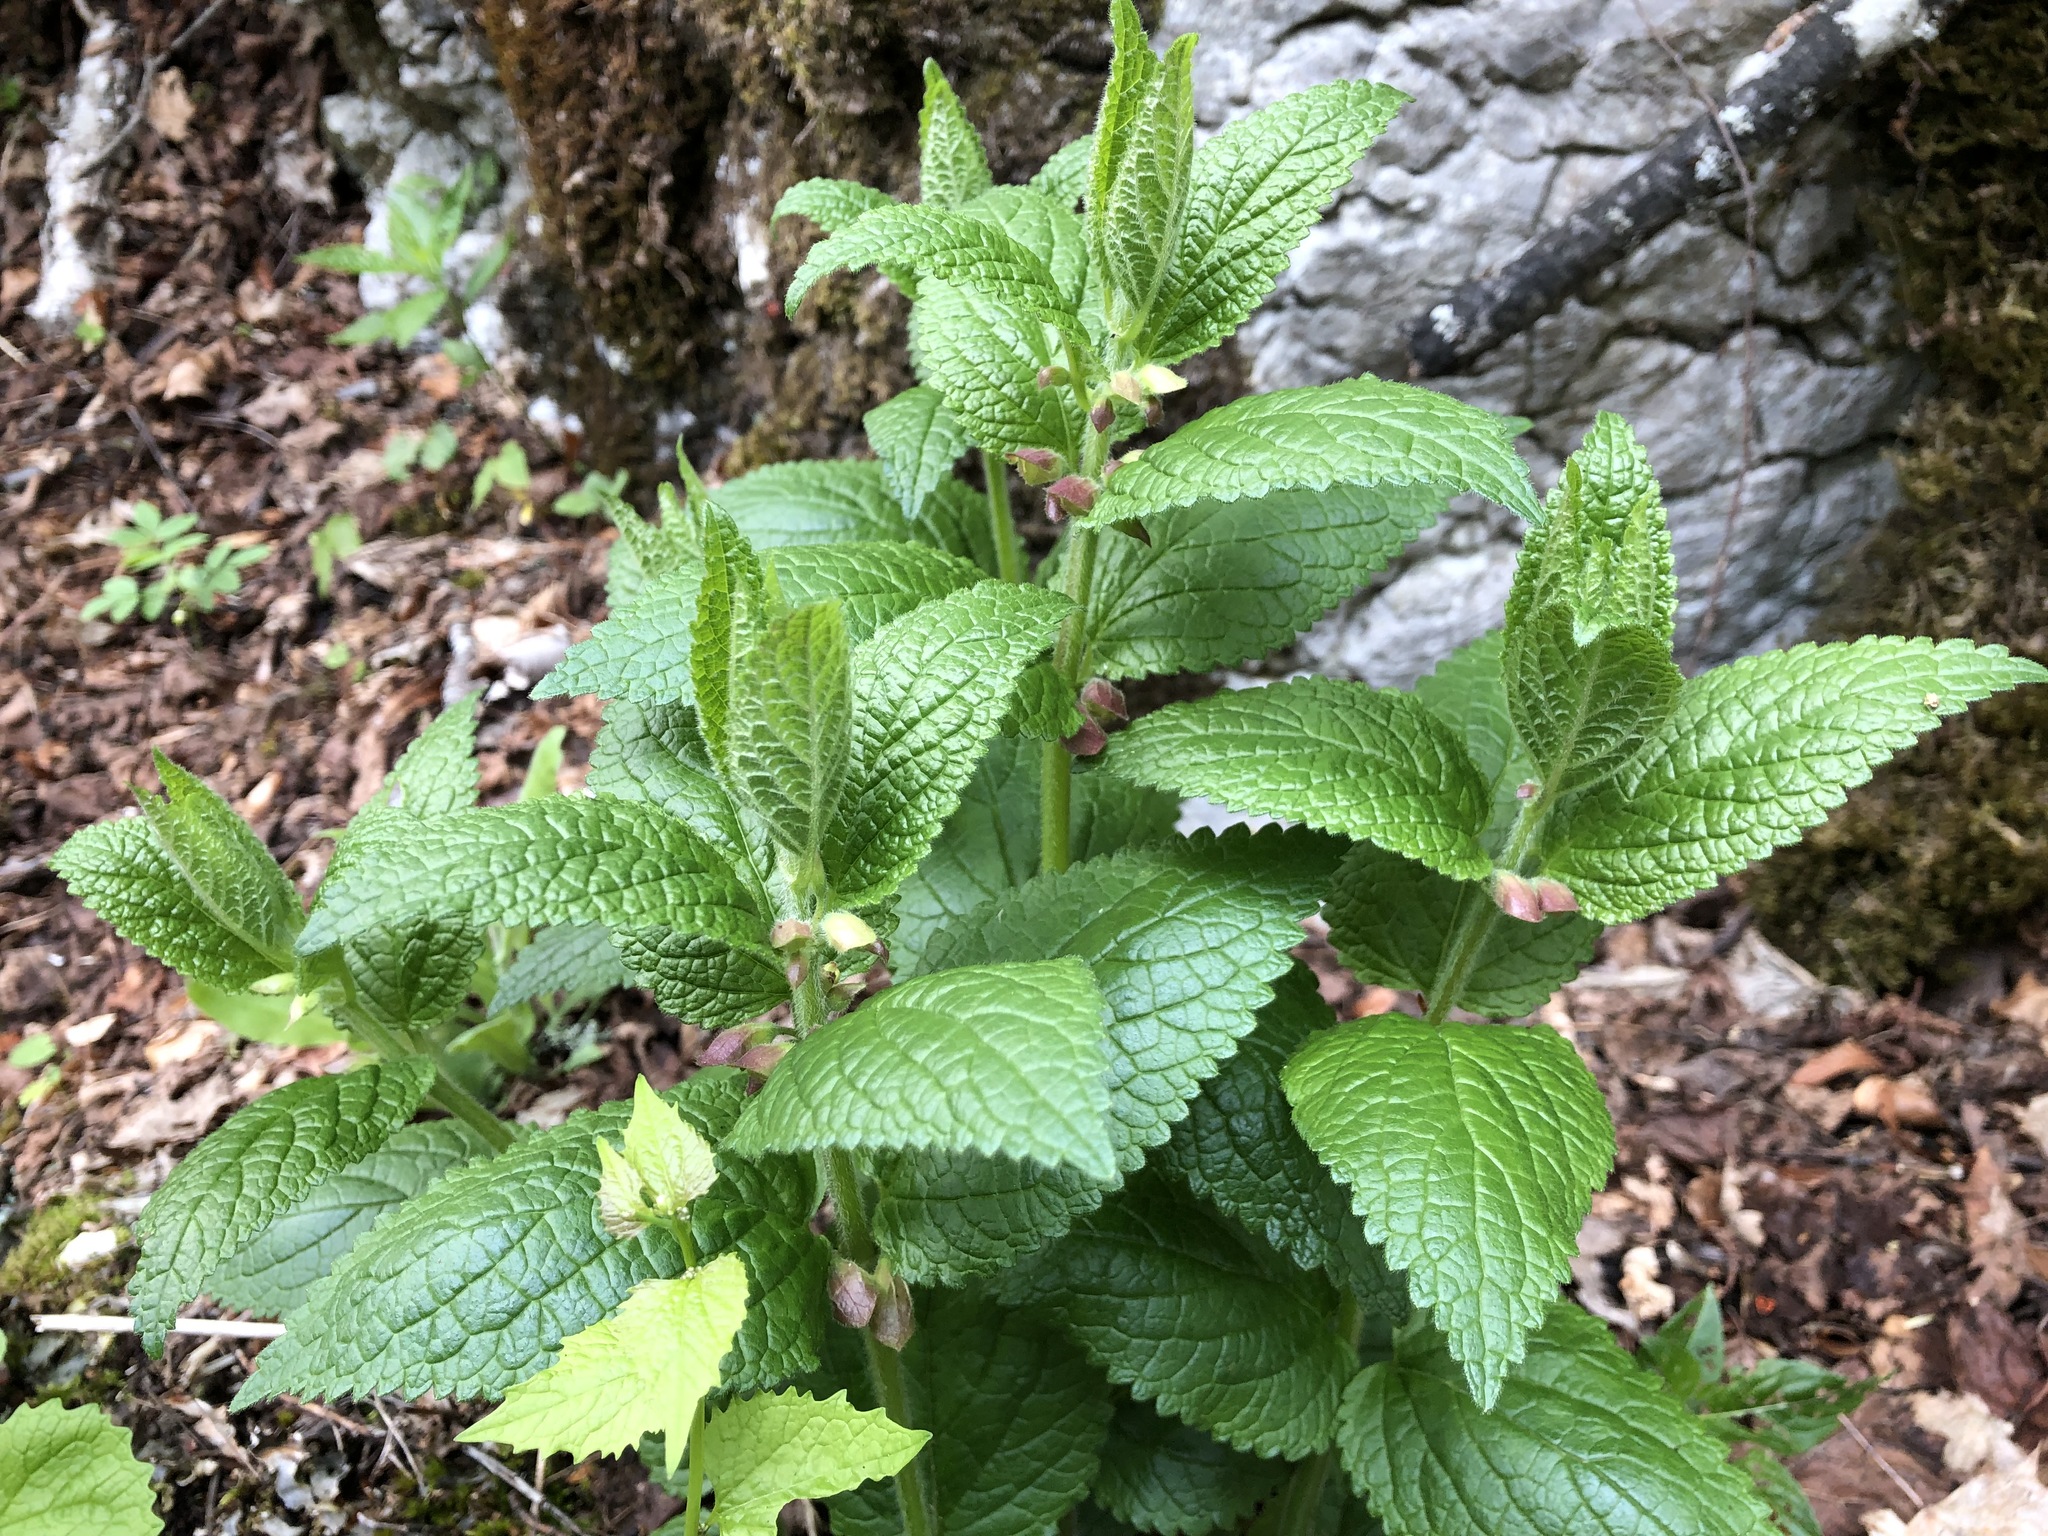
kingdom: Plantae
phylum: Tracheophyta
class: Magnoliopsida
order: Lamiales
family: Lamiaceae
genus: Melittis
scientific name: Melittis melissophyllum
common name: Bastard balm
